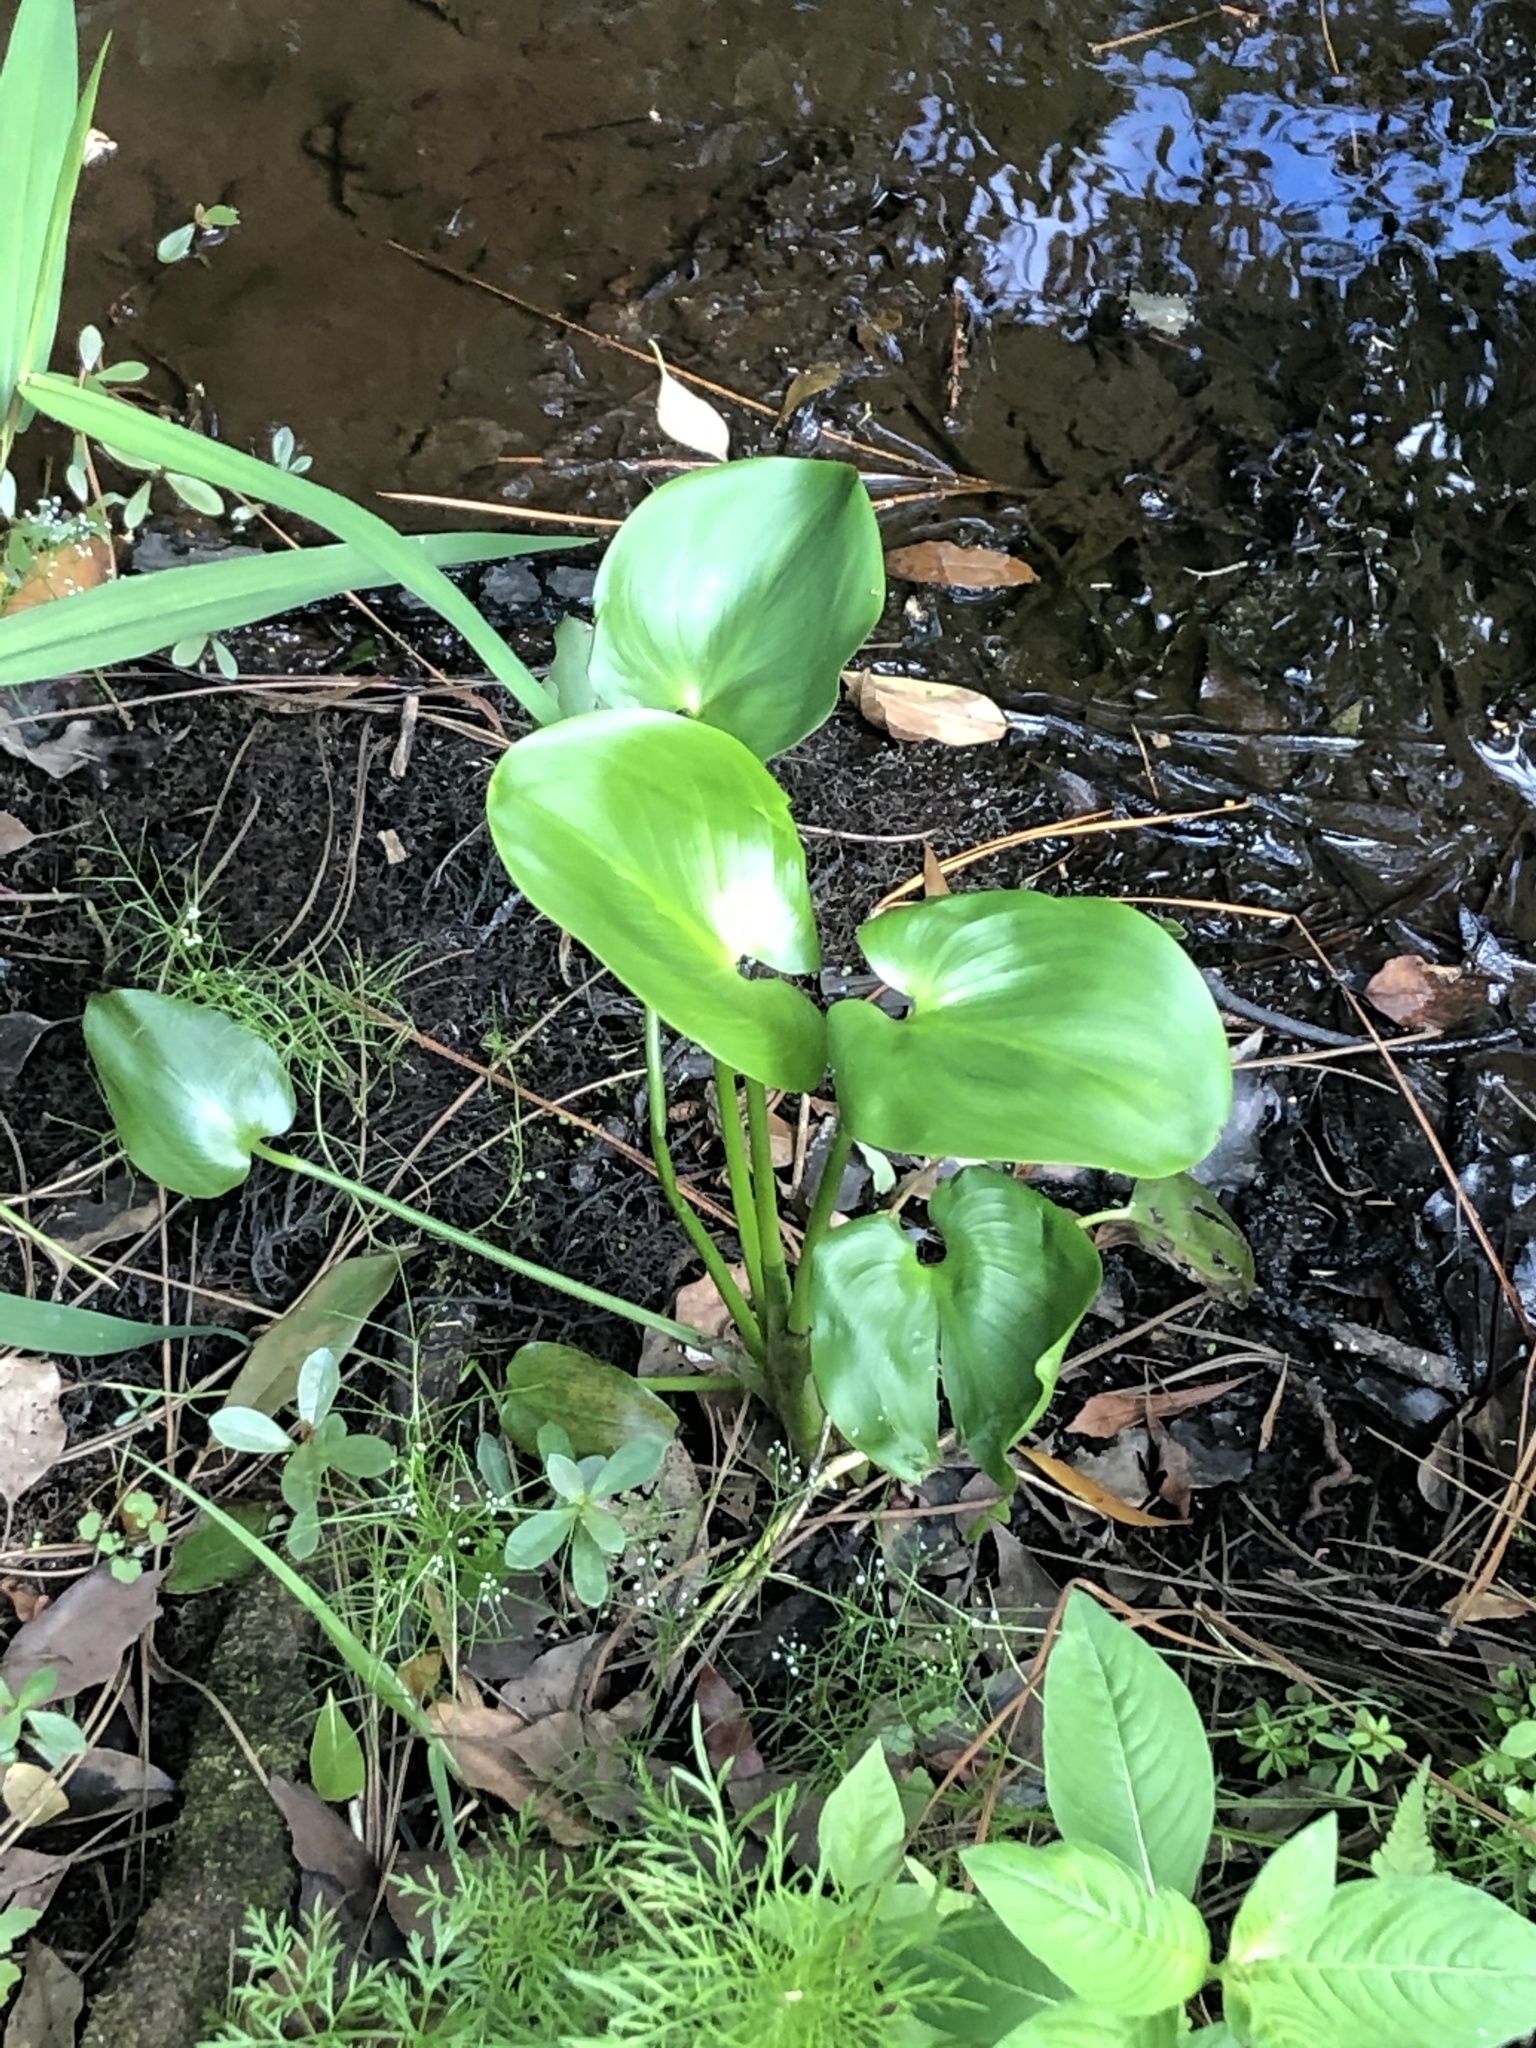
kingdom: Plantae
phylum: Tracheophyta
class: Liliopsida
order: Commelinales
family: Pontederiaceae
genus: Pontederia
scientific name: Pontederia cordata
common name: Pickerelweed
